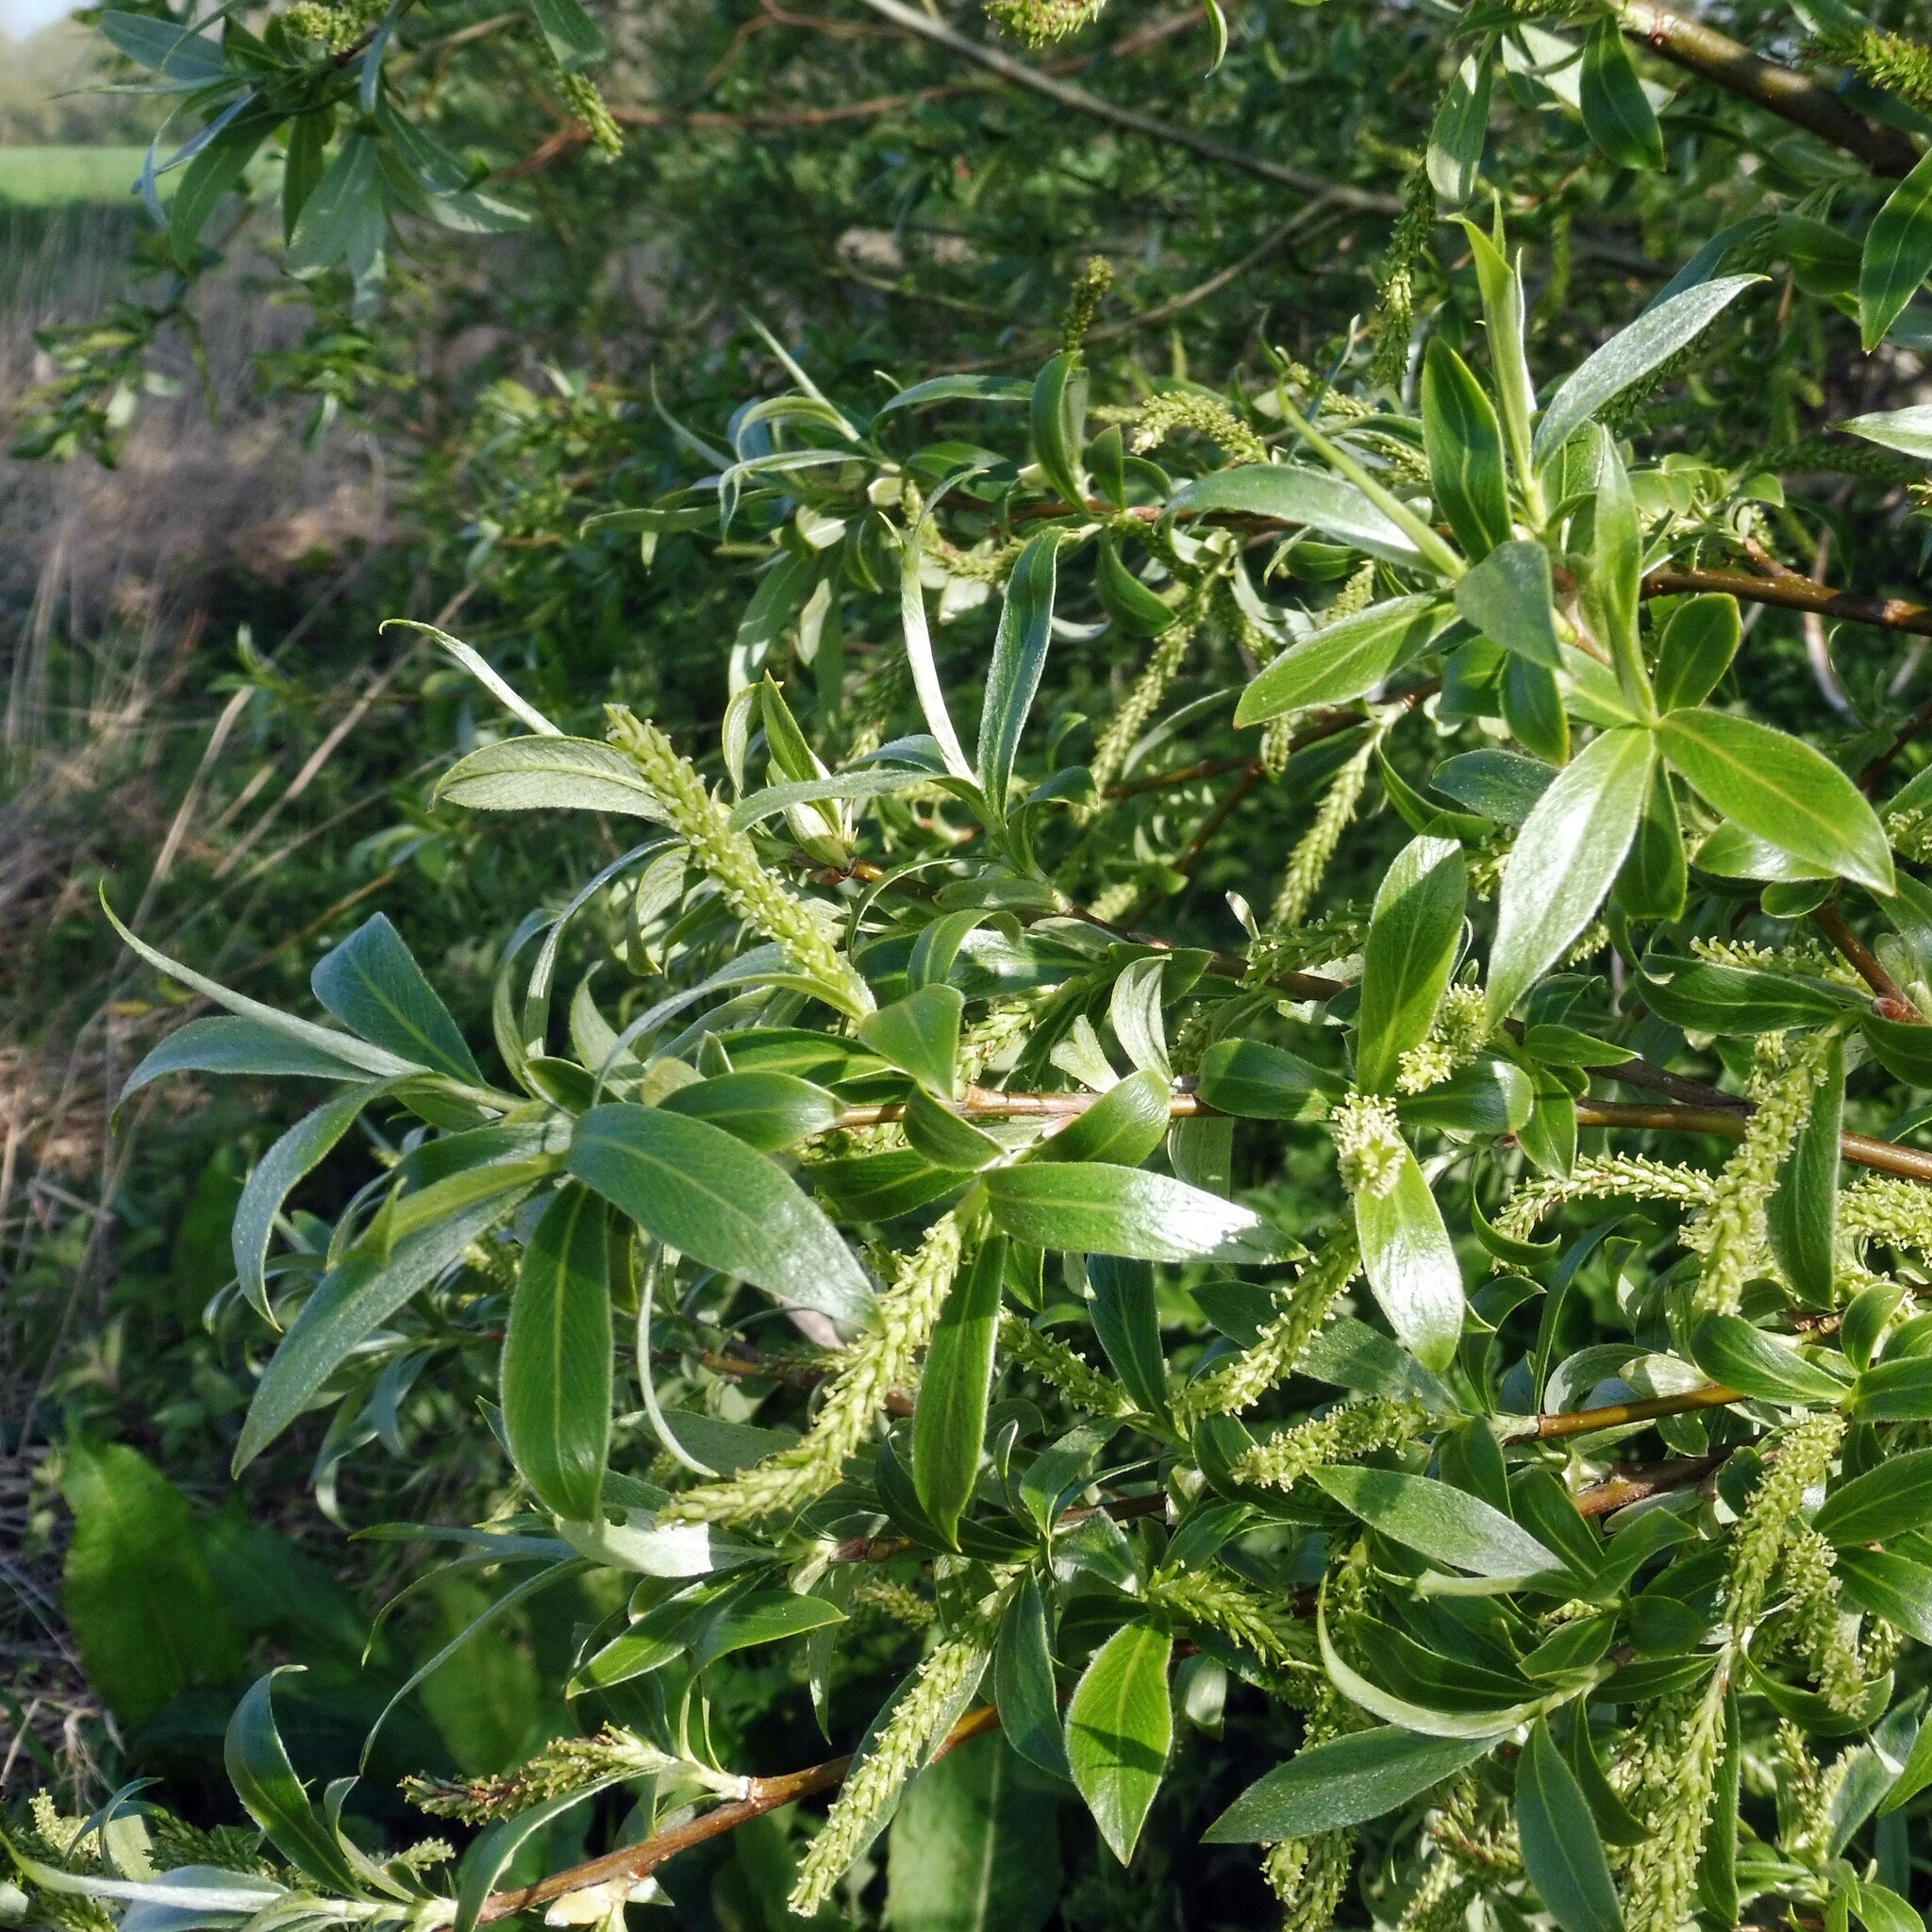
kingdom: Plantae
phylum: Tracheophyta
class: Magnoliopsida
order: Malpighiales
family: Salicaceae
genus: Salix
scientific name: Salix alba
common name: White willow
